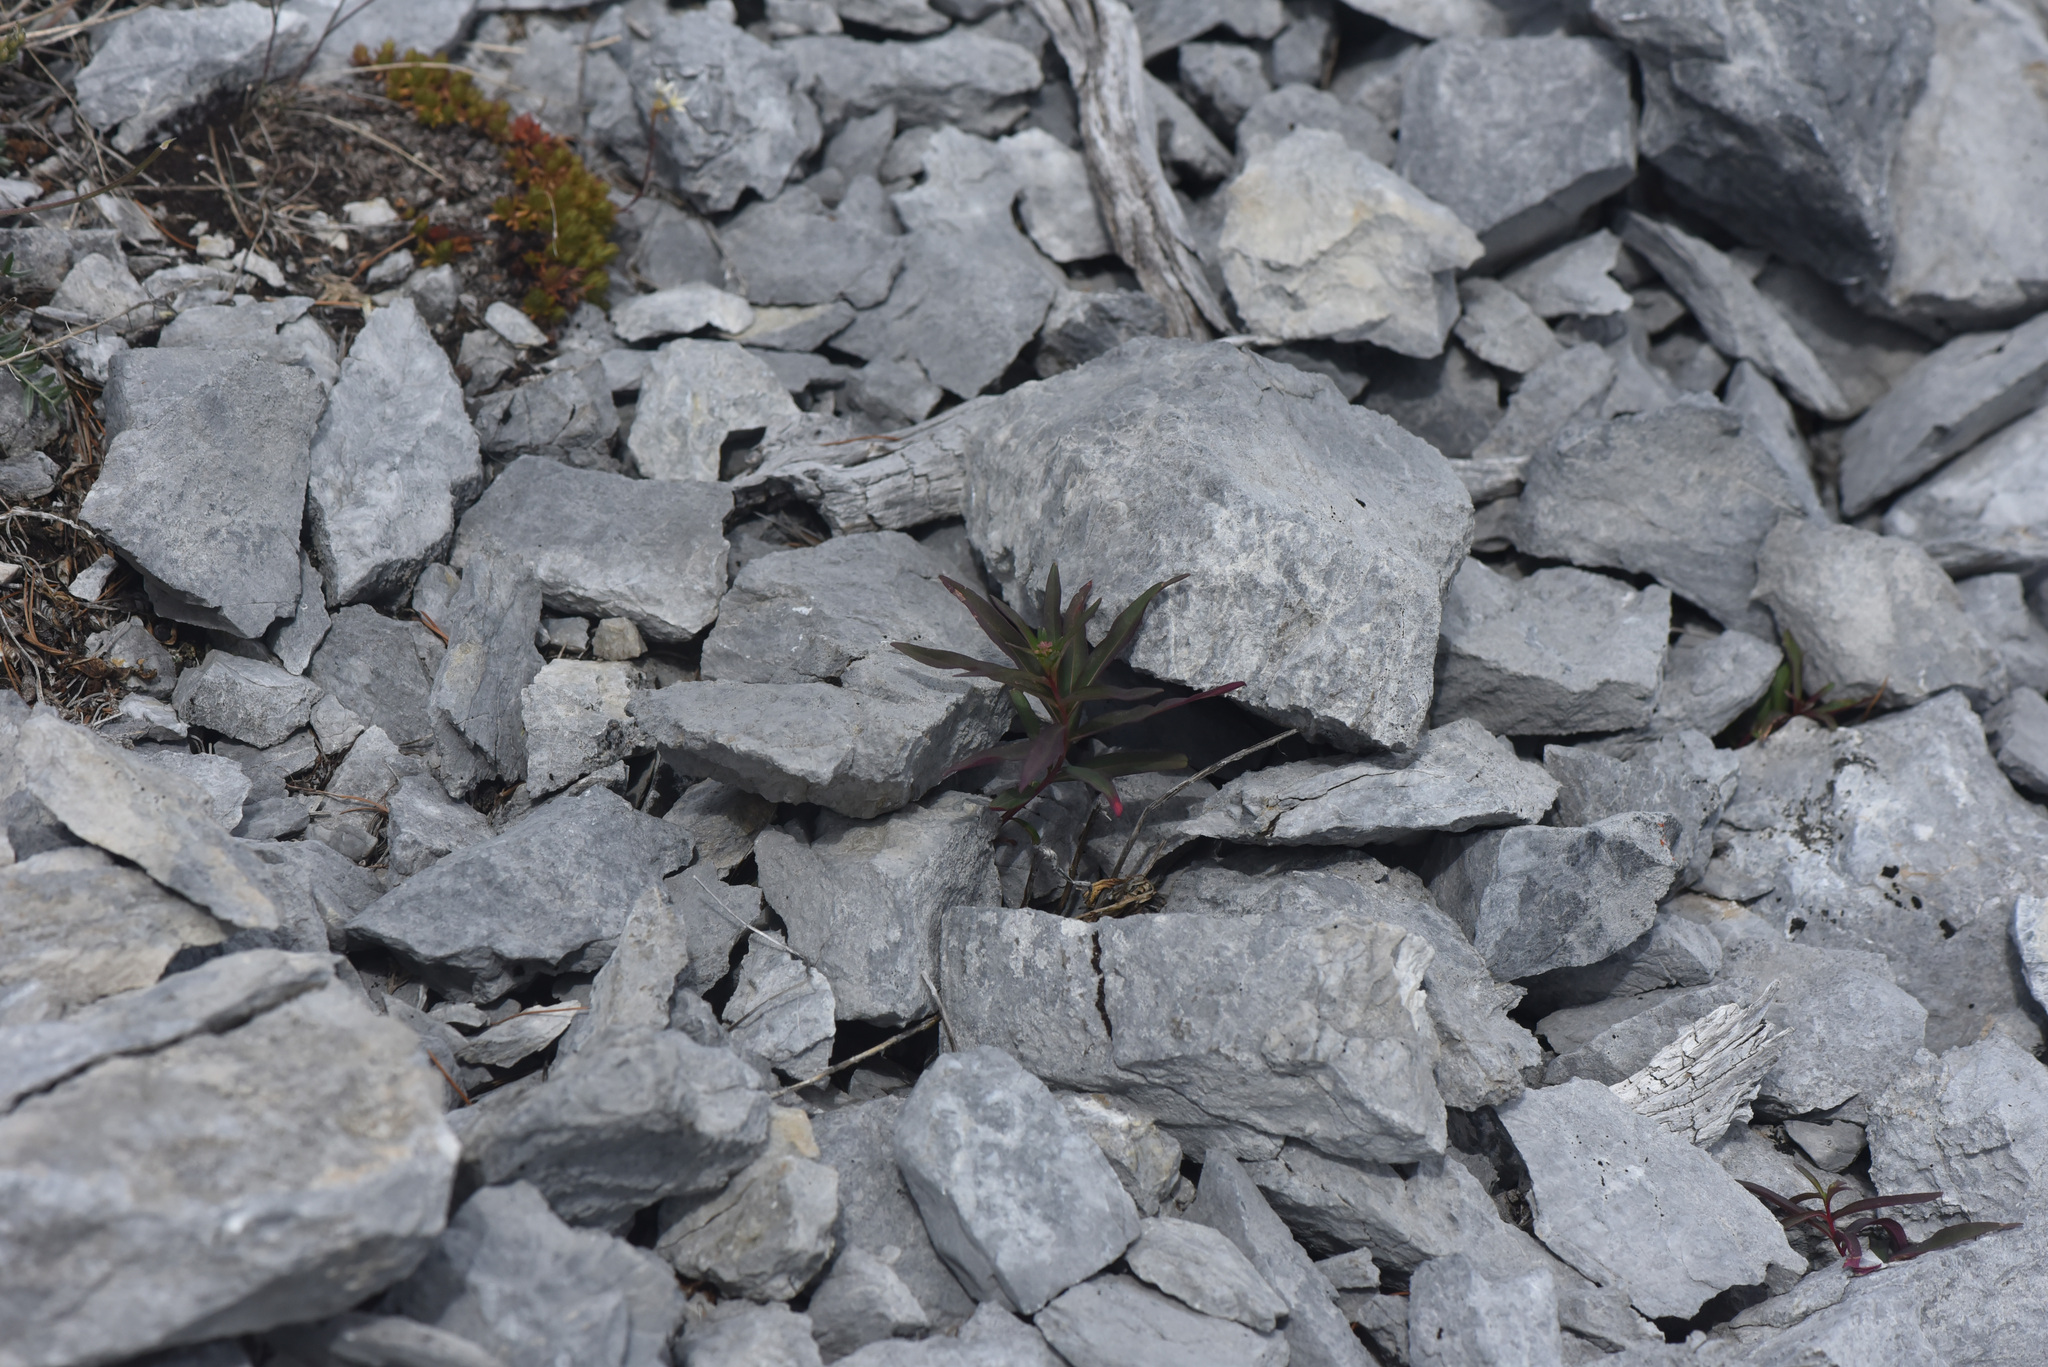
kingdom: Plantae
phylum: Tracheophyta
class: Magnoliopsida
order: Myrtales
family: Onagraceae
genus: Chamaenerion
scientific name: Chamaenerion angustifolium
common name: Fireweed
